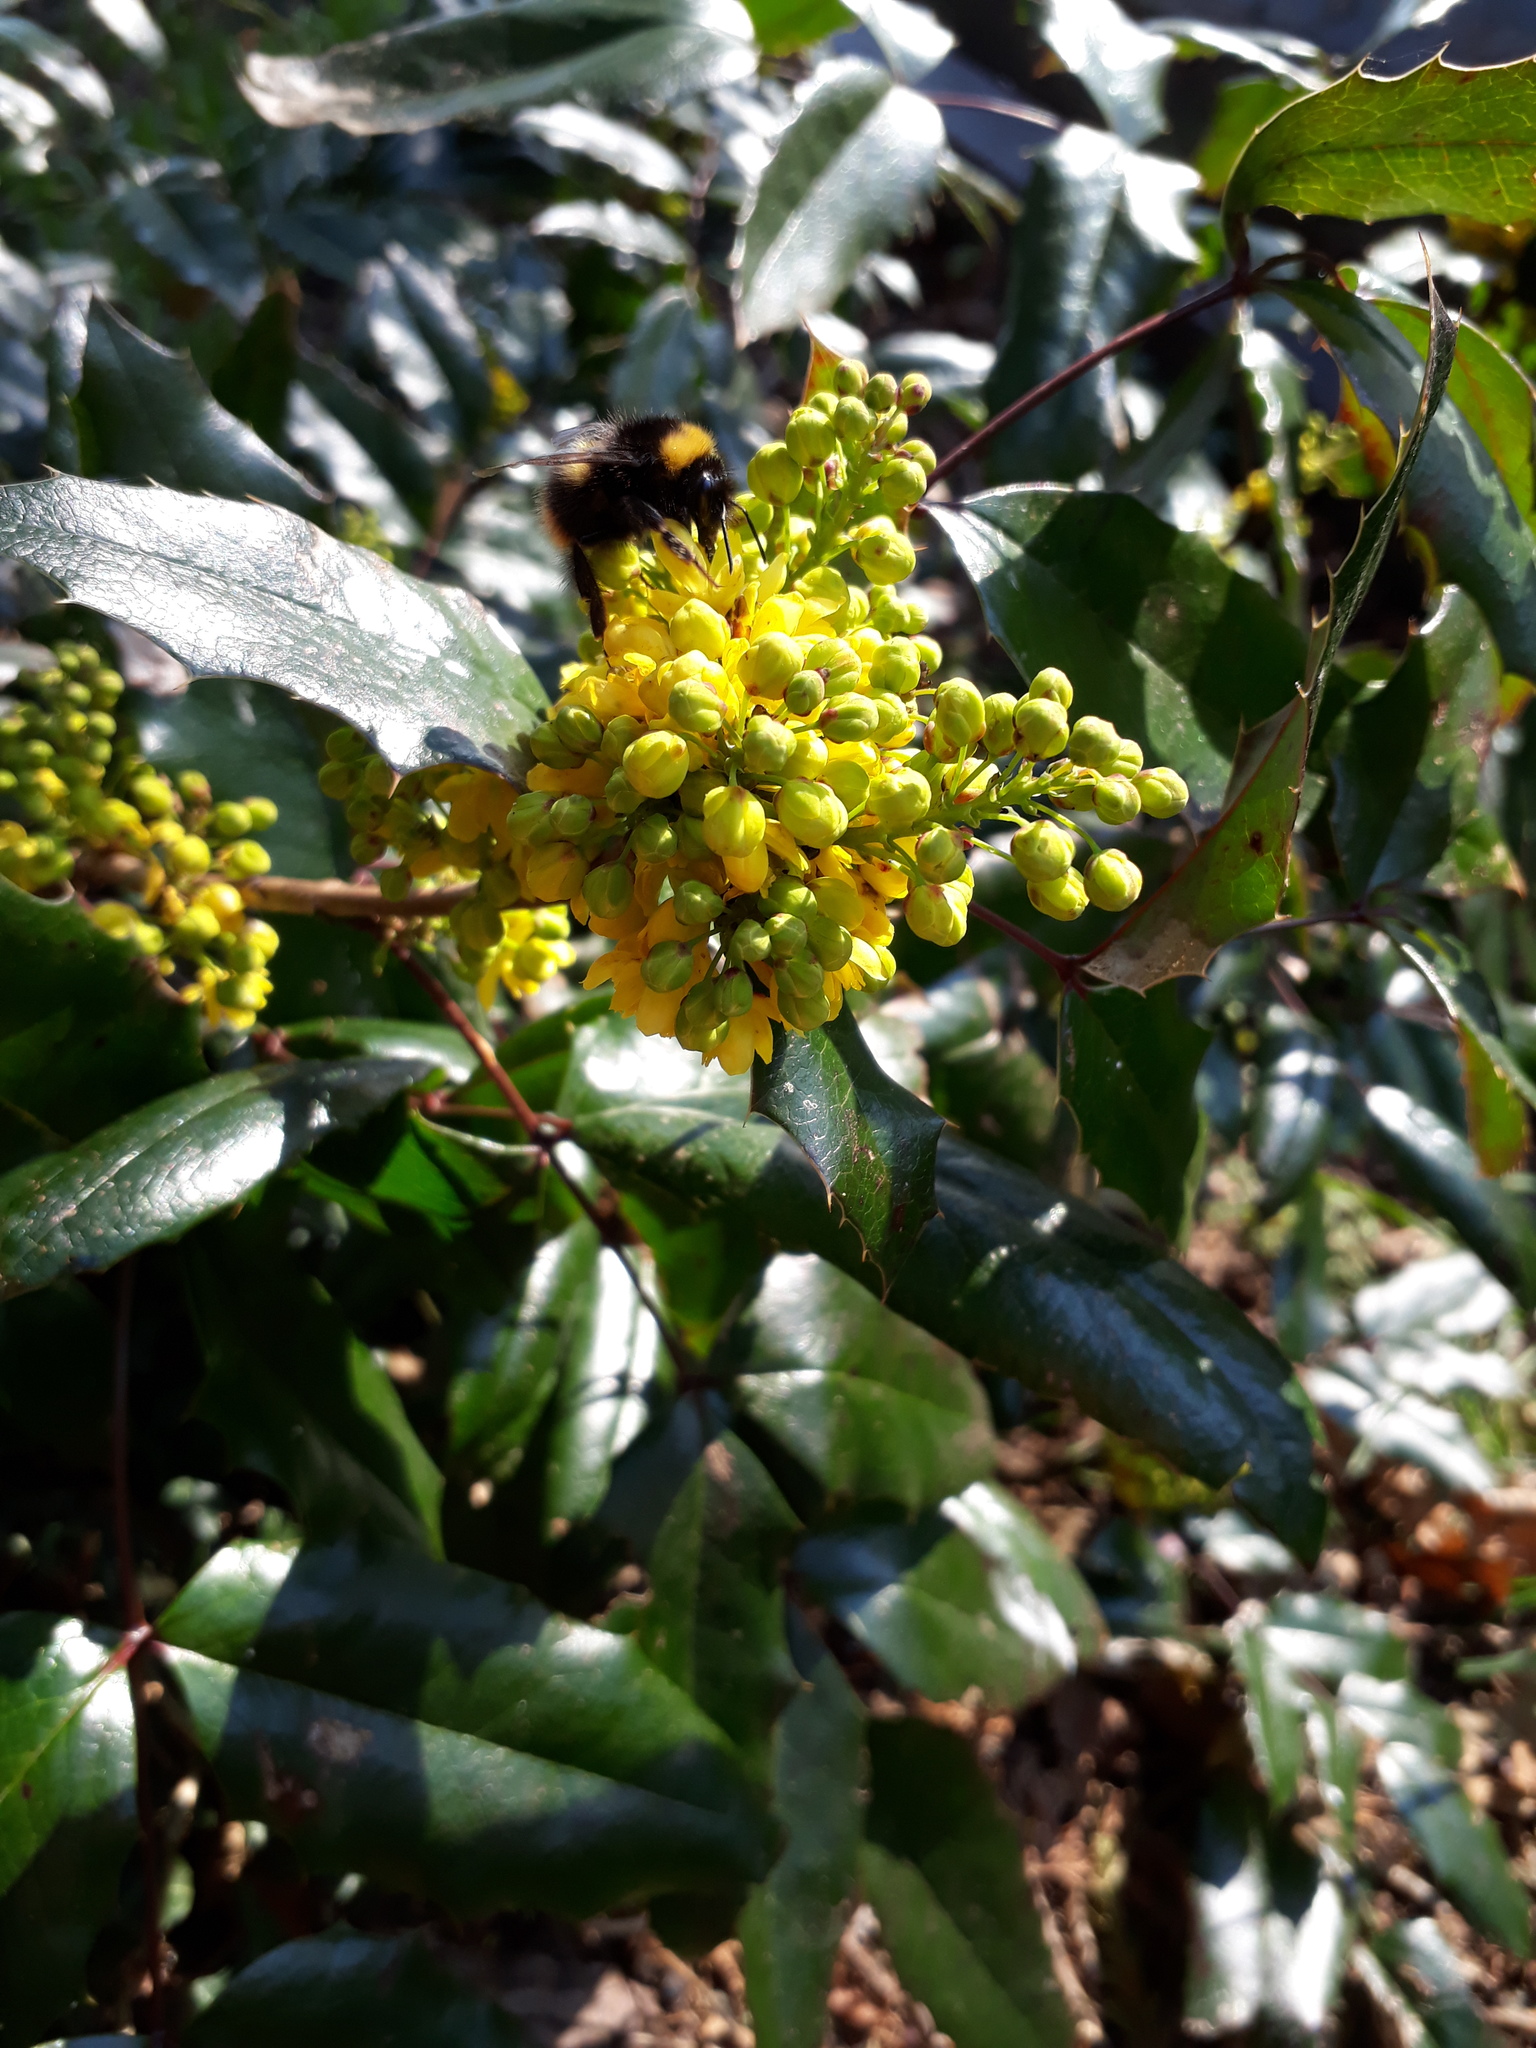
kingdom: Animalia
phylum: Arthropoda
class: Insecta
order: Hymenoptera
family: Apidae
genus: Bombus
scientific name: Bombus pratorum
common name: Early humble-bee
